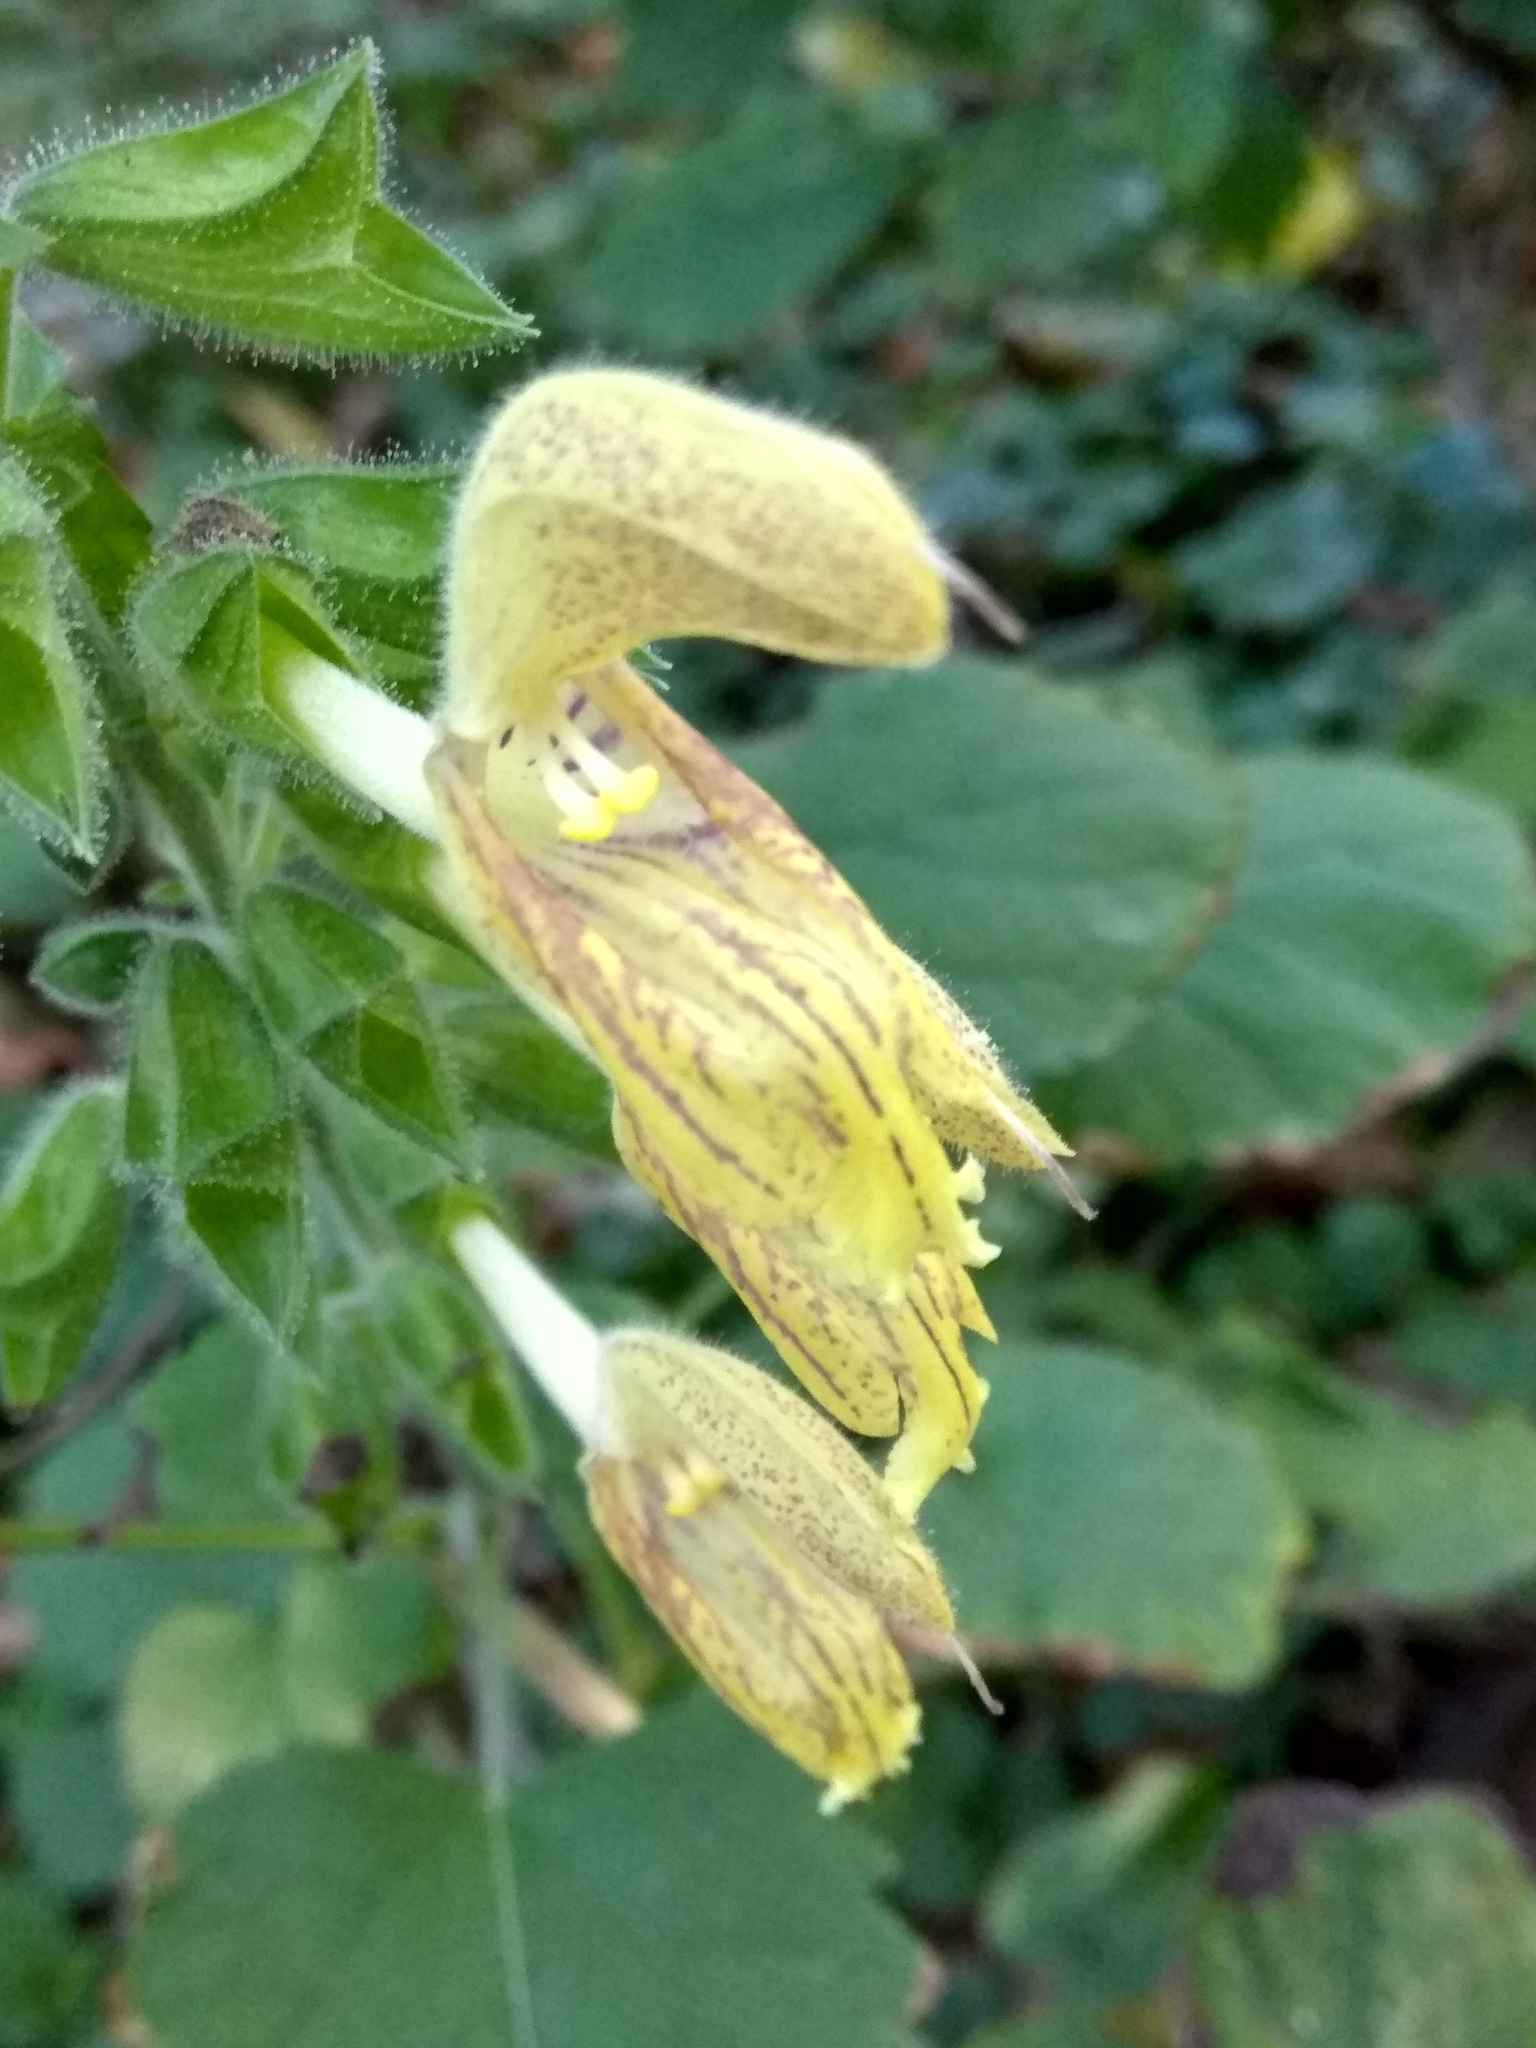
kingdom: Plantae
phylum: Tracheophyta
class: Magnoliopsida
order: Lamiales
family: Lamiaceae
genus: Salvia
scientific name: Salvia glutinosa
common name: Sticky clary
